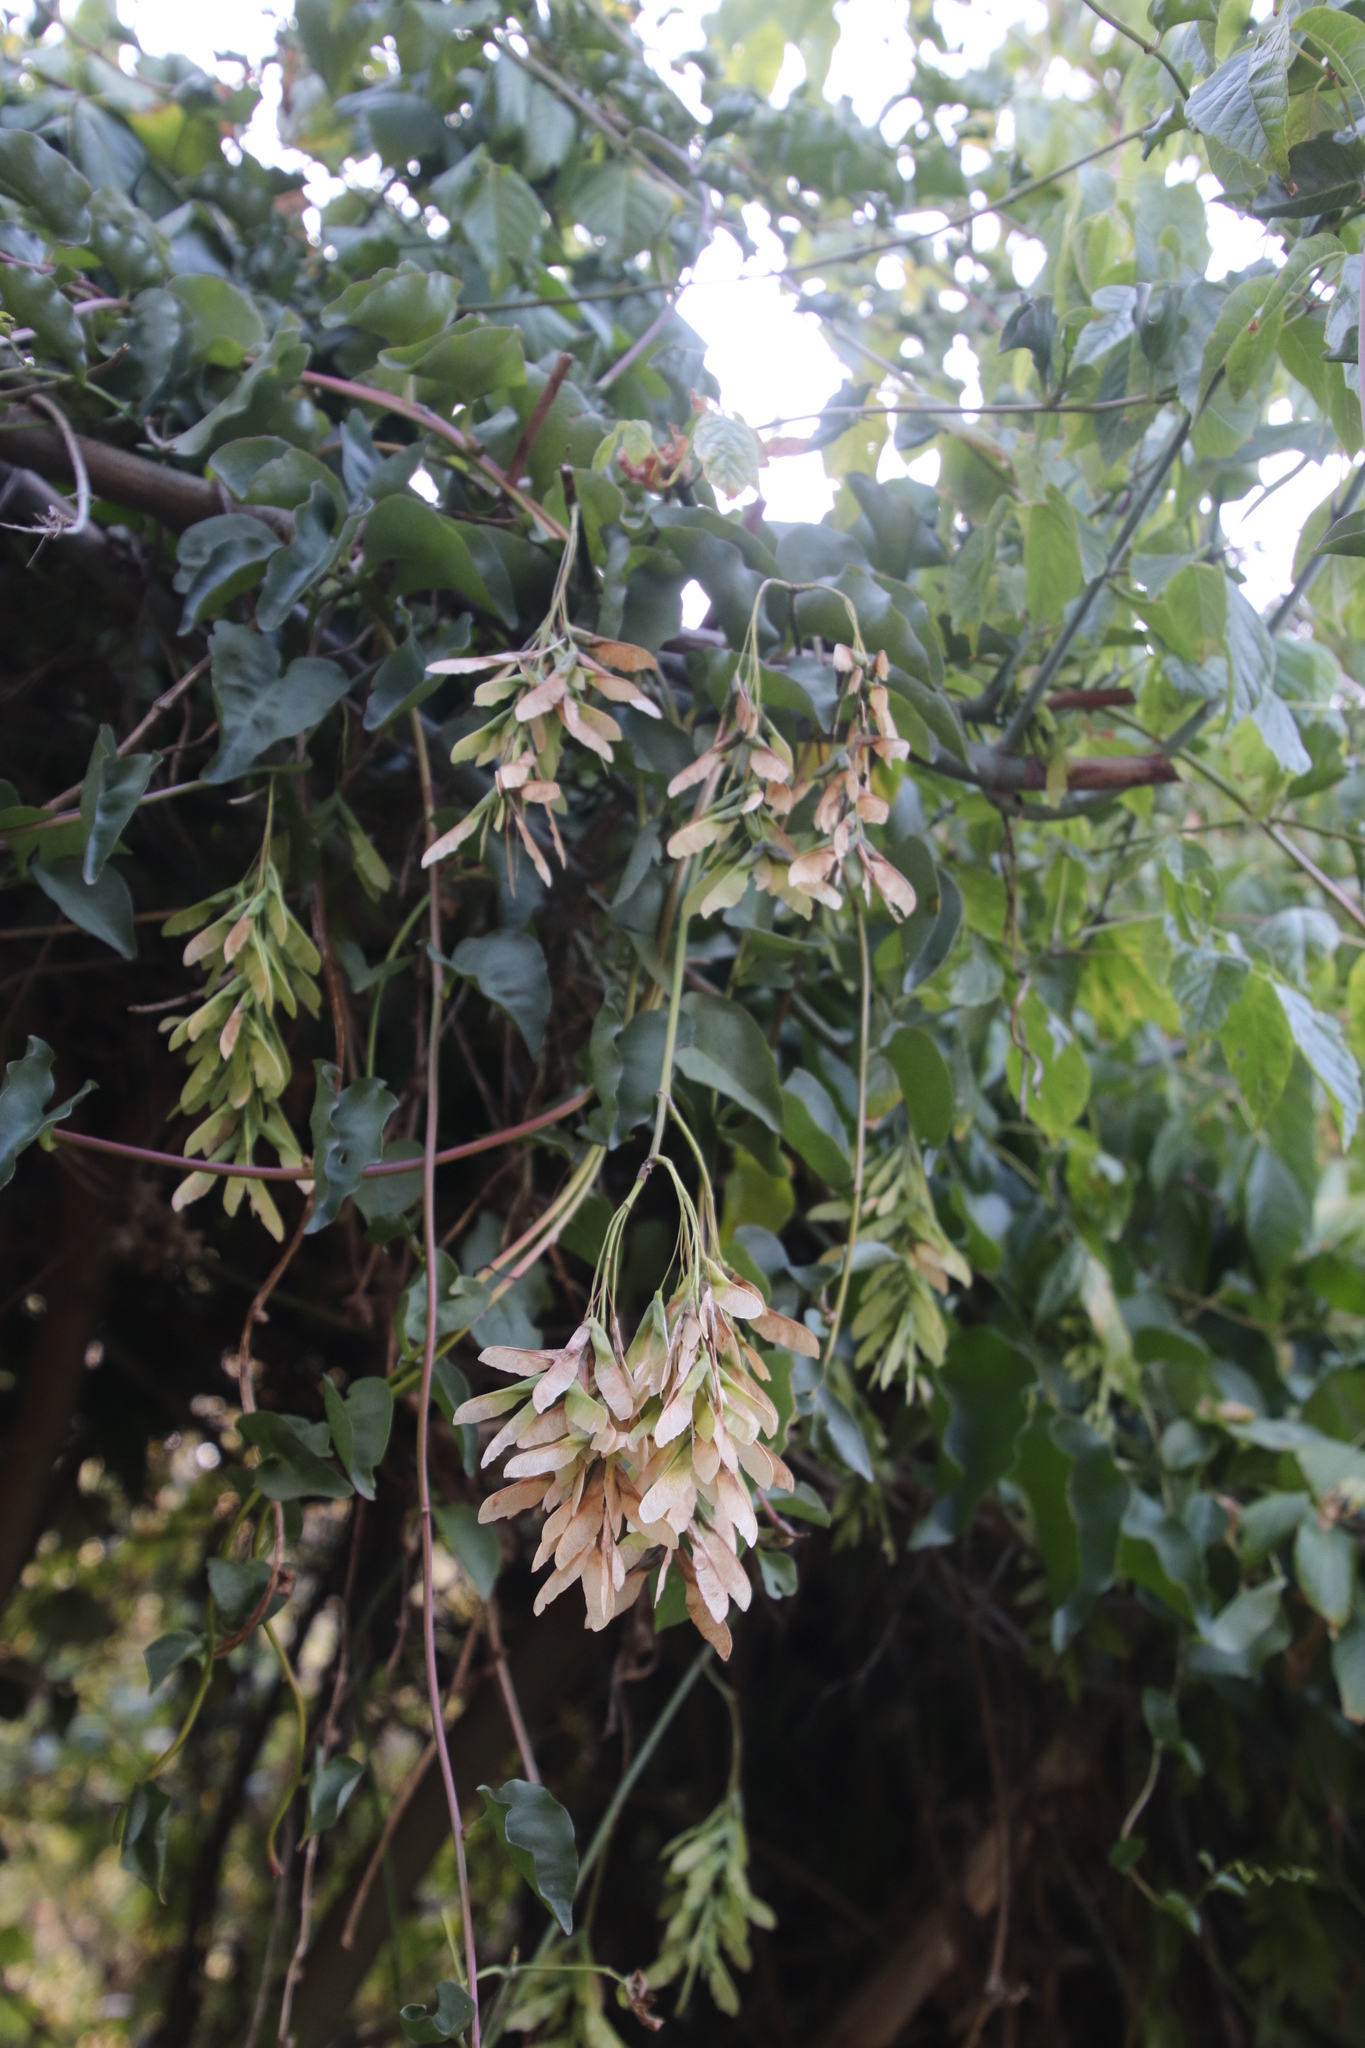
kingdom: Plantae
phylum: Tracheophyta
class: Magnoliopsida
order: Sapindales
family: Sapindaceae
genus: Acer
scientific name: Acer negundo
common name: Ashleaf maple
